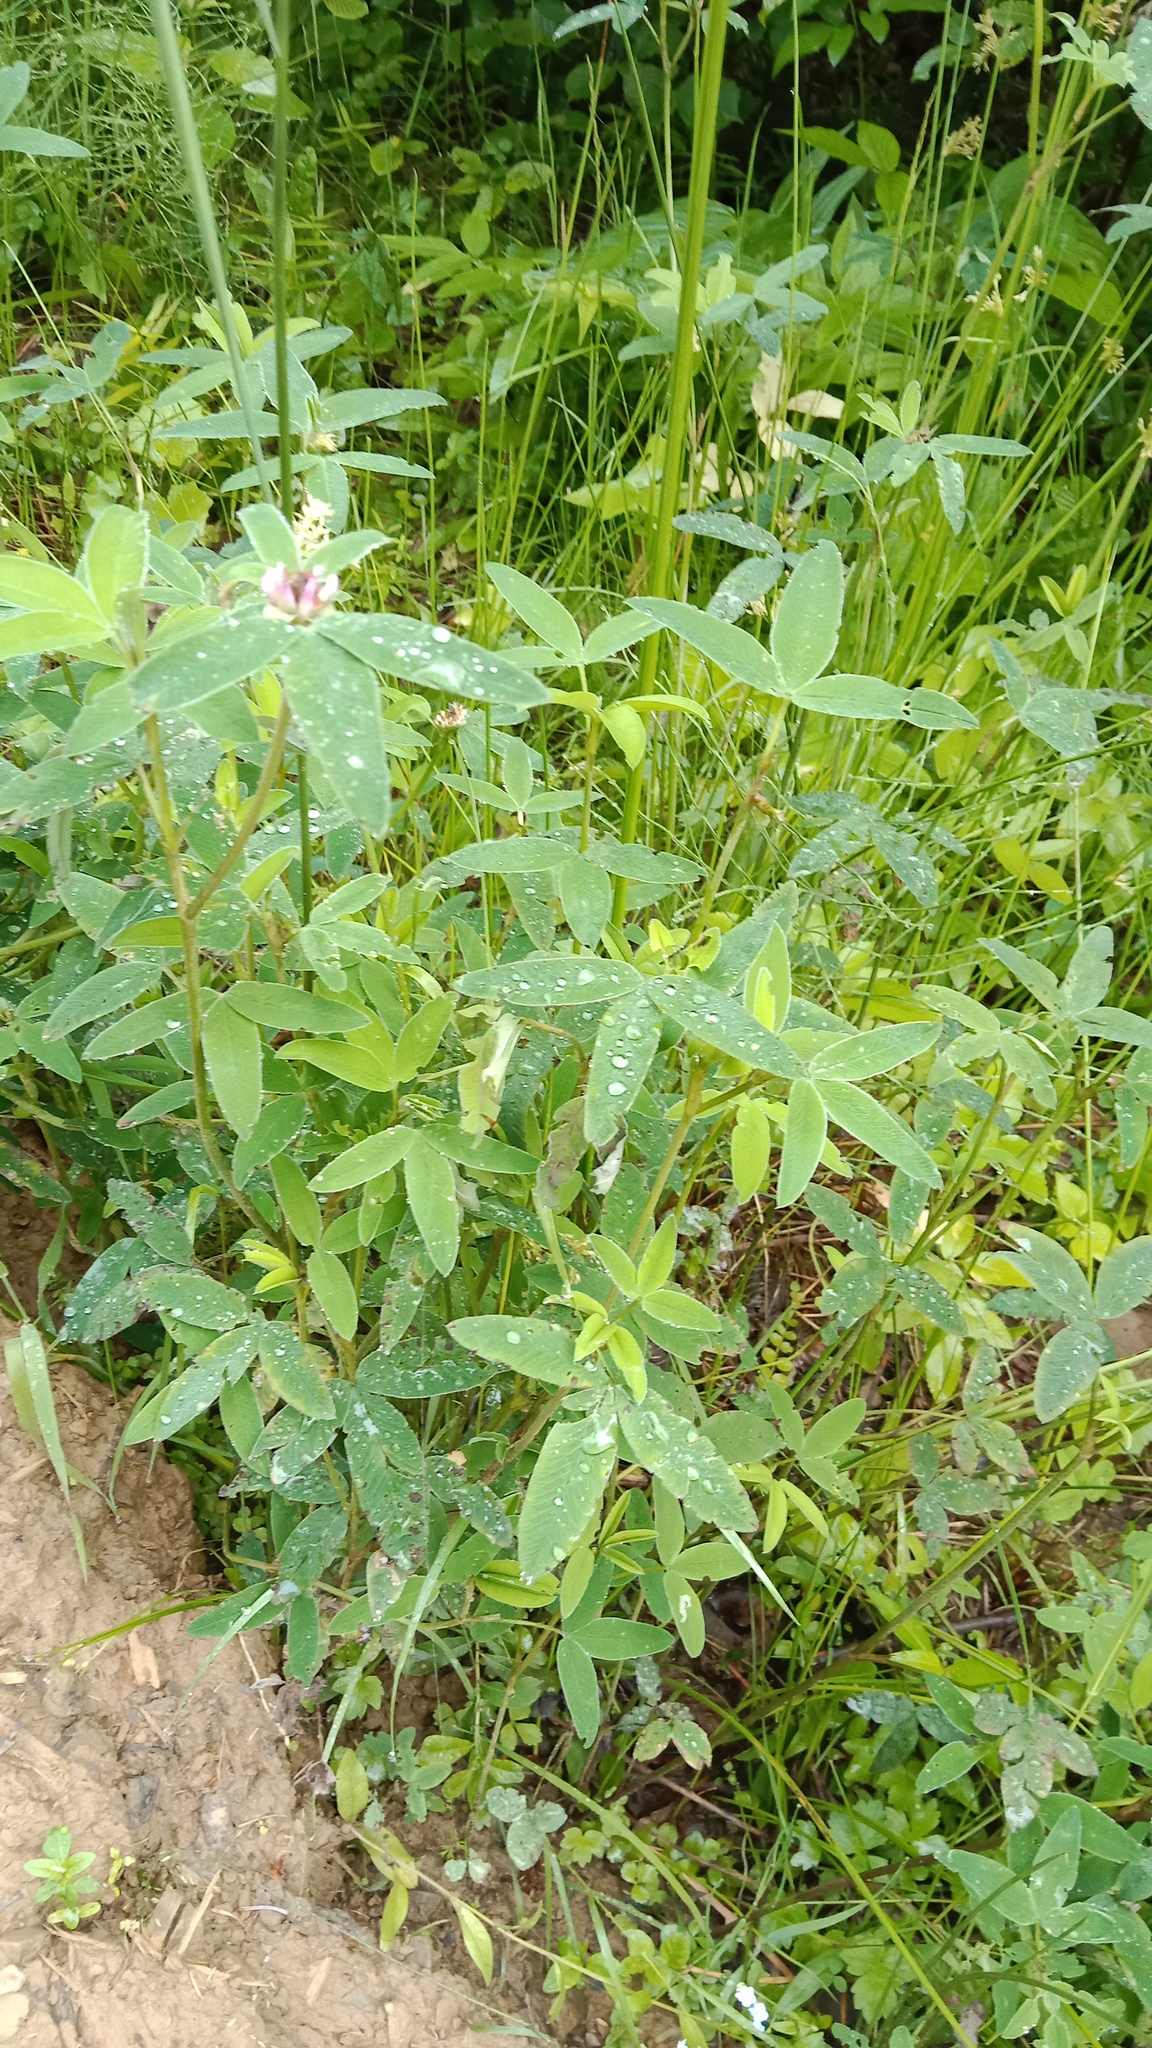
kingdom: Plantae
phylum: Tracheophyta
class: Magnoliopsida
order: Fabales
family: Fabaceae
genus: Trifolium
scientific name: Trifolium medium
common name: Zigzag clover
